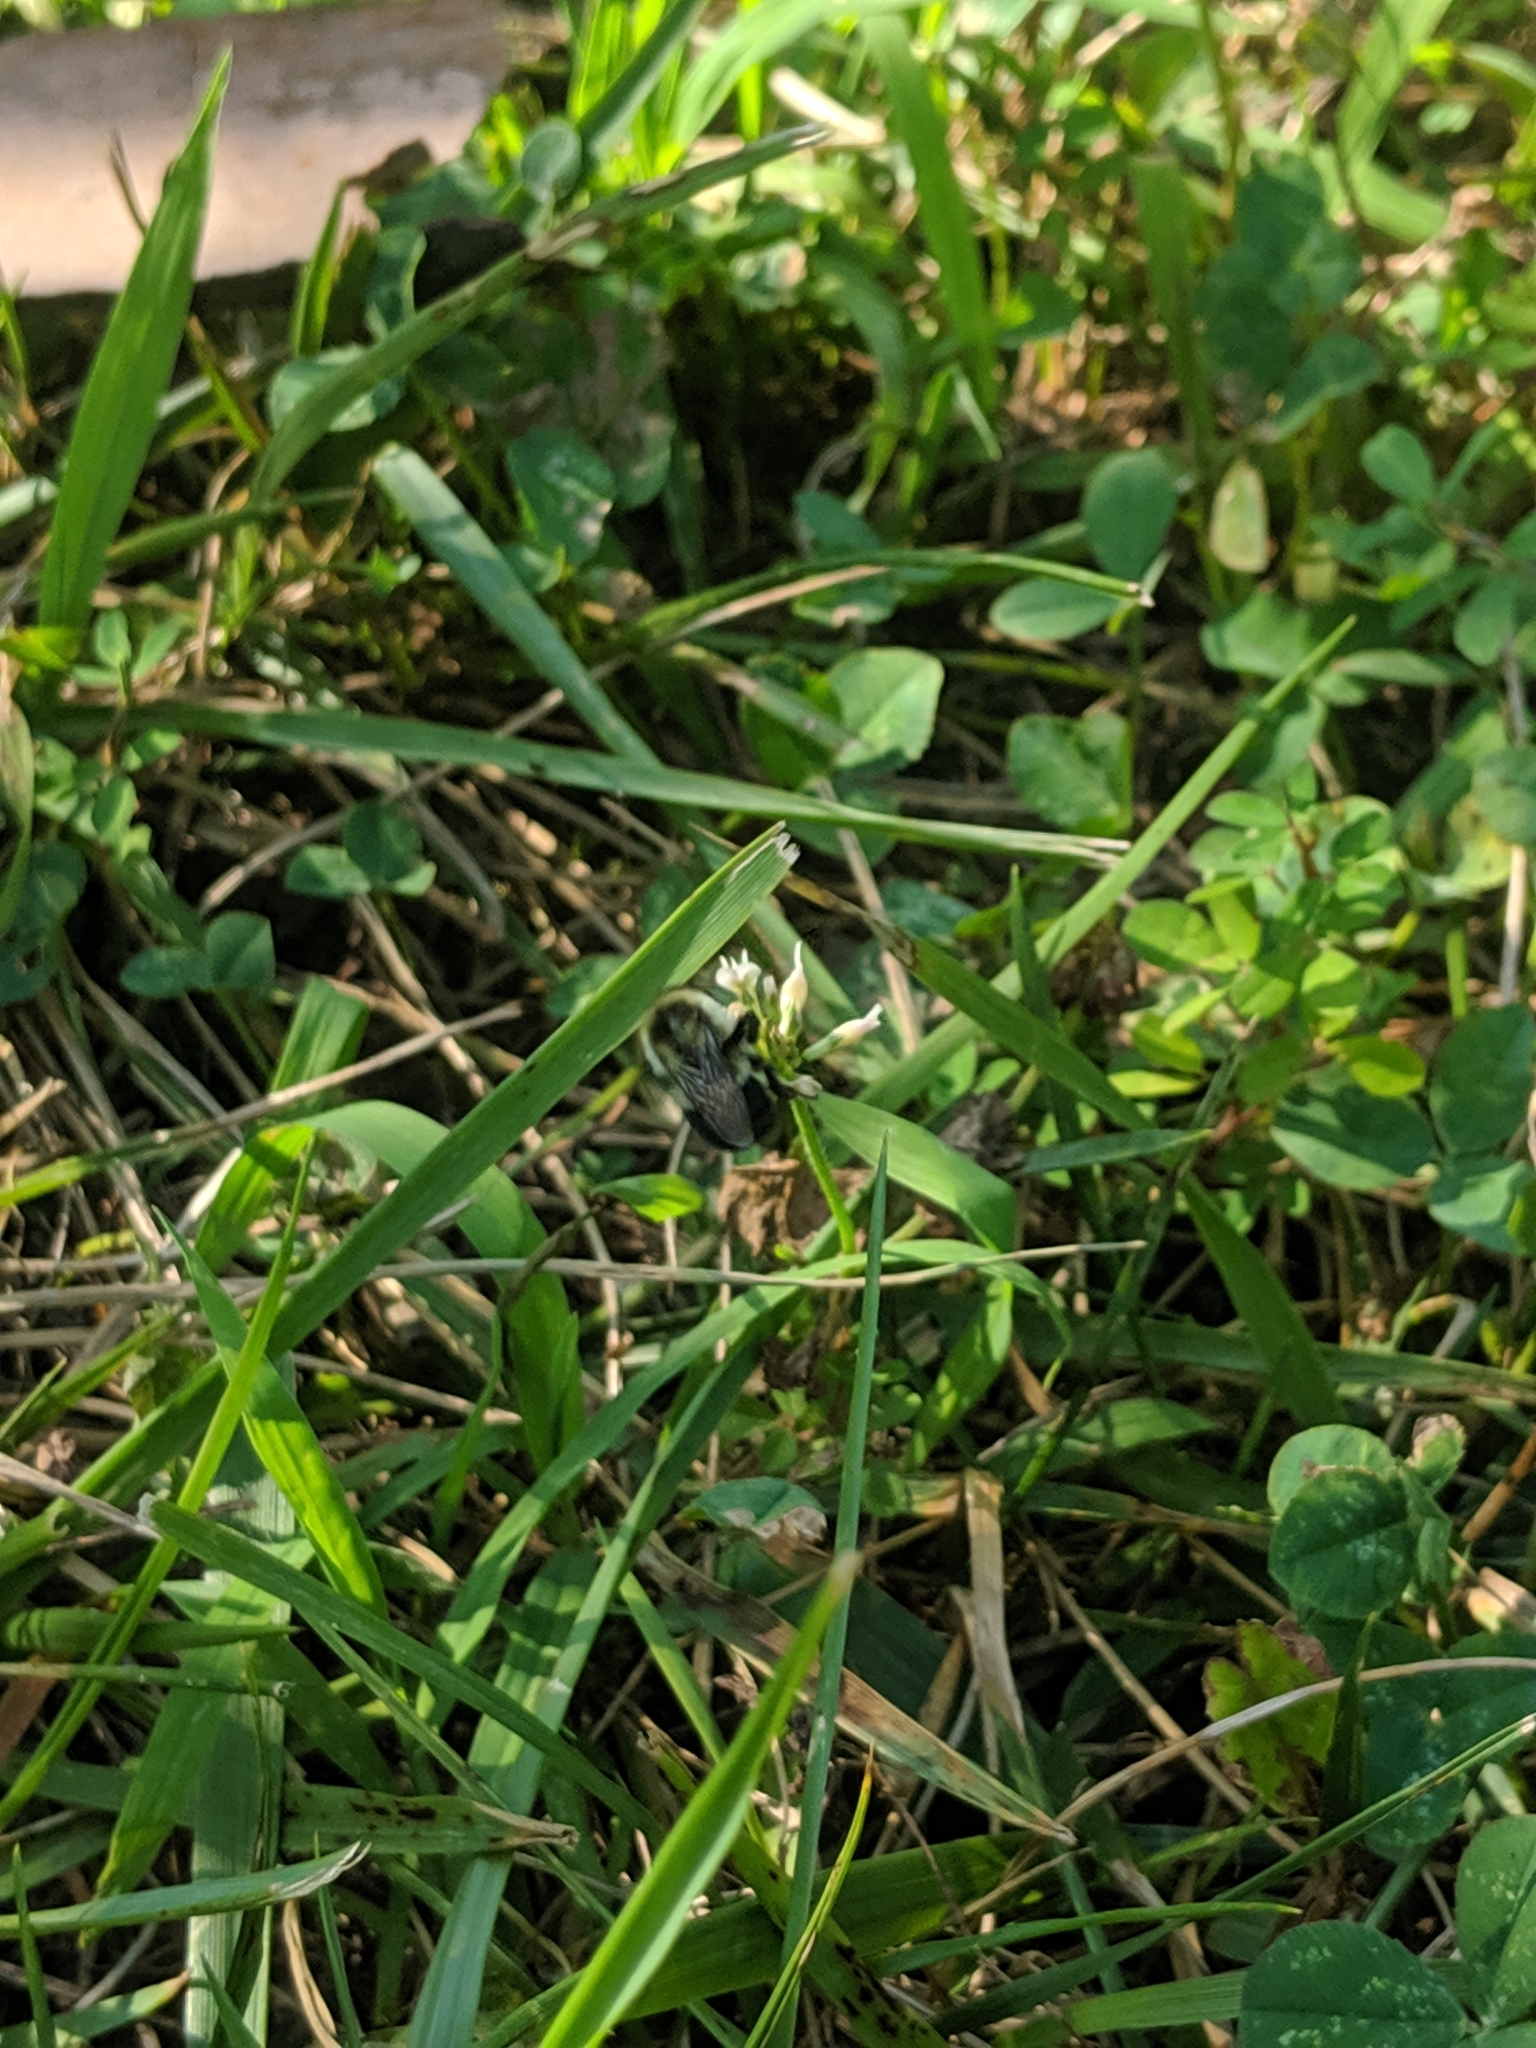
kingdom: Animalia
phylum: Arthropoda
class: Insecta
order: Hymenoptera
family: Apidae
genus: Bombus
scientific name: Bombus impatiens
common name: Common eastern bumble bee
